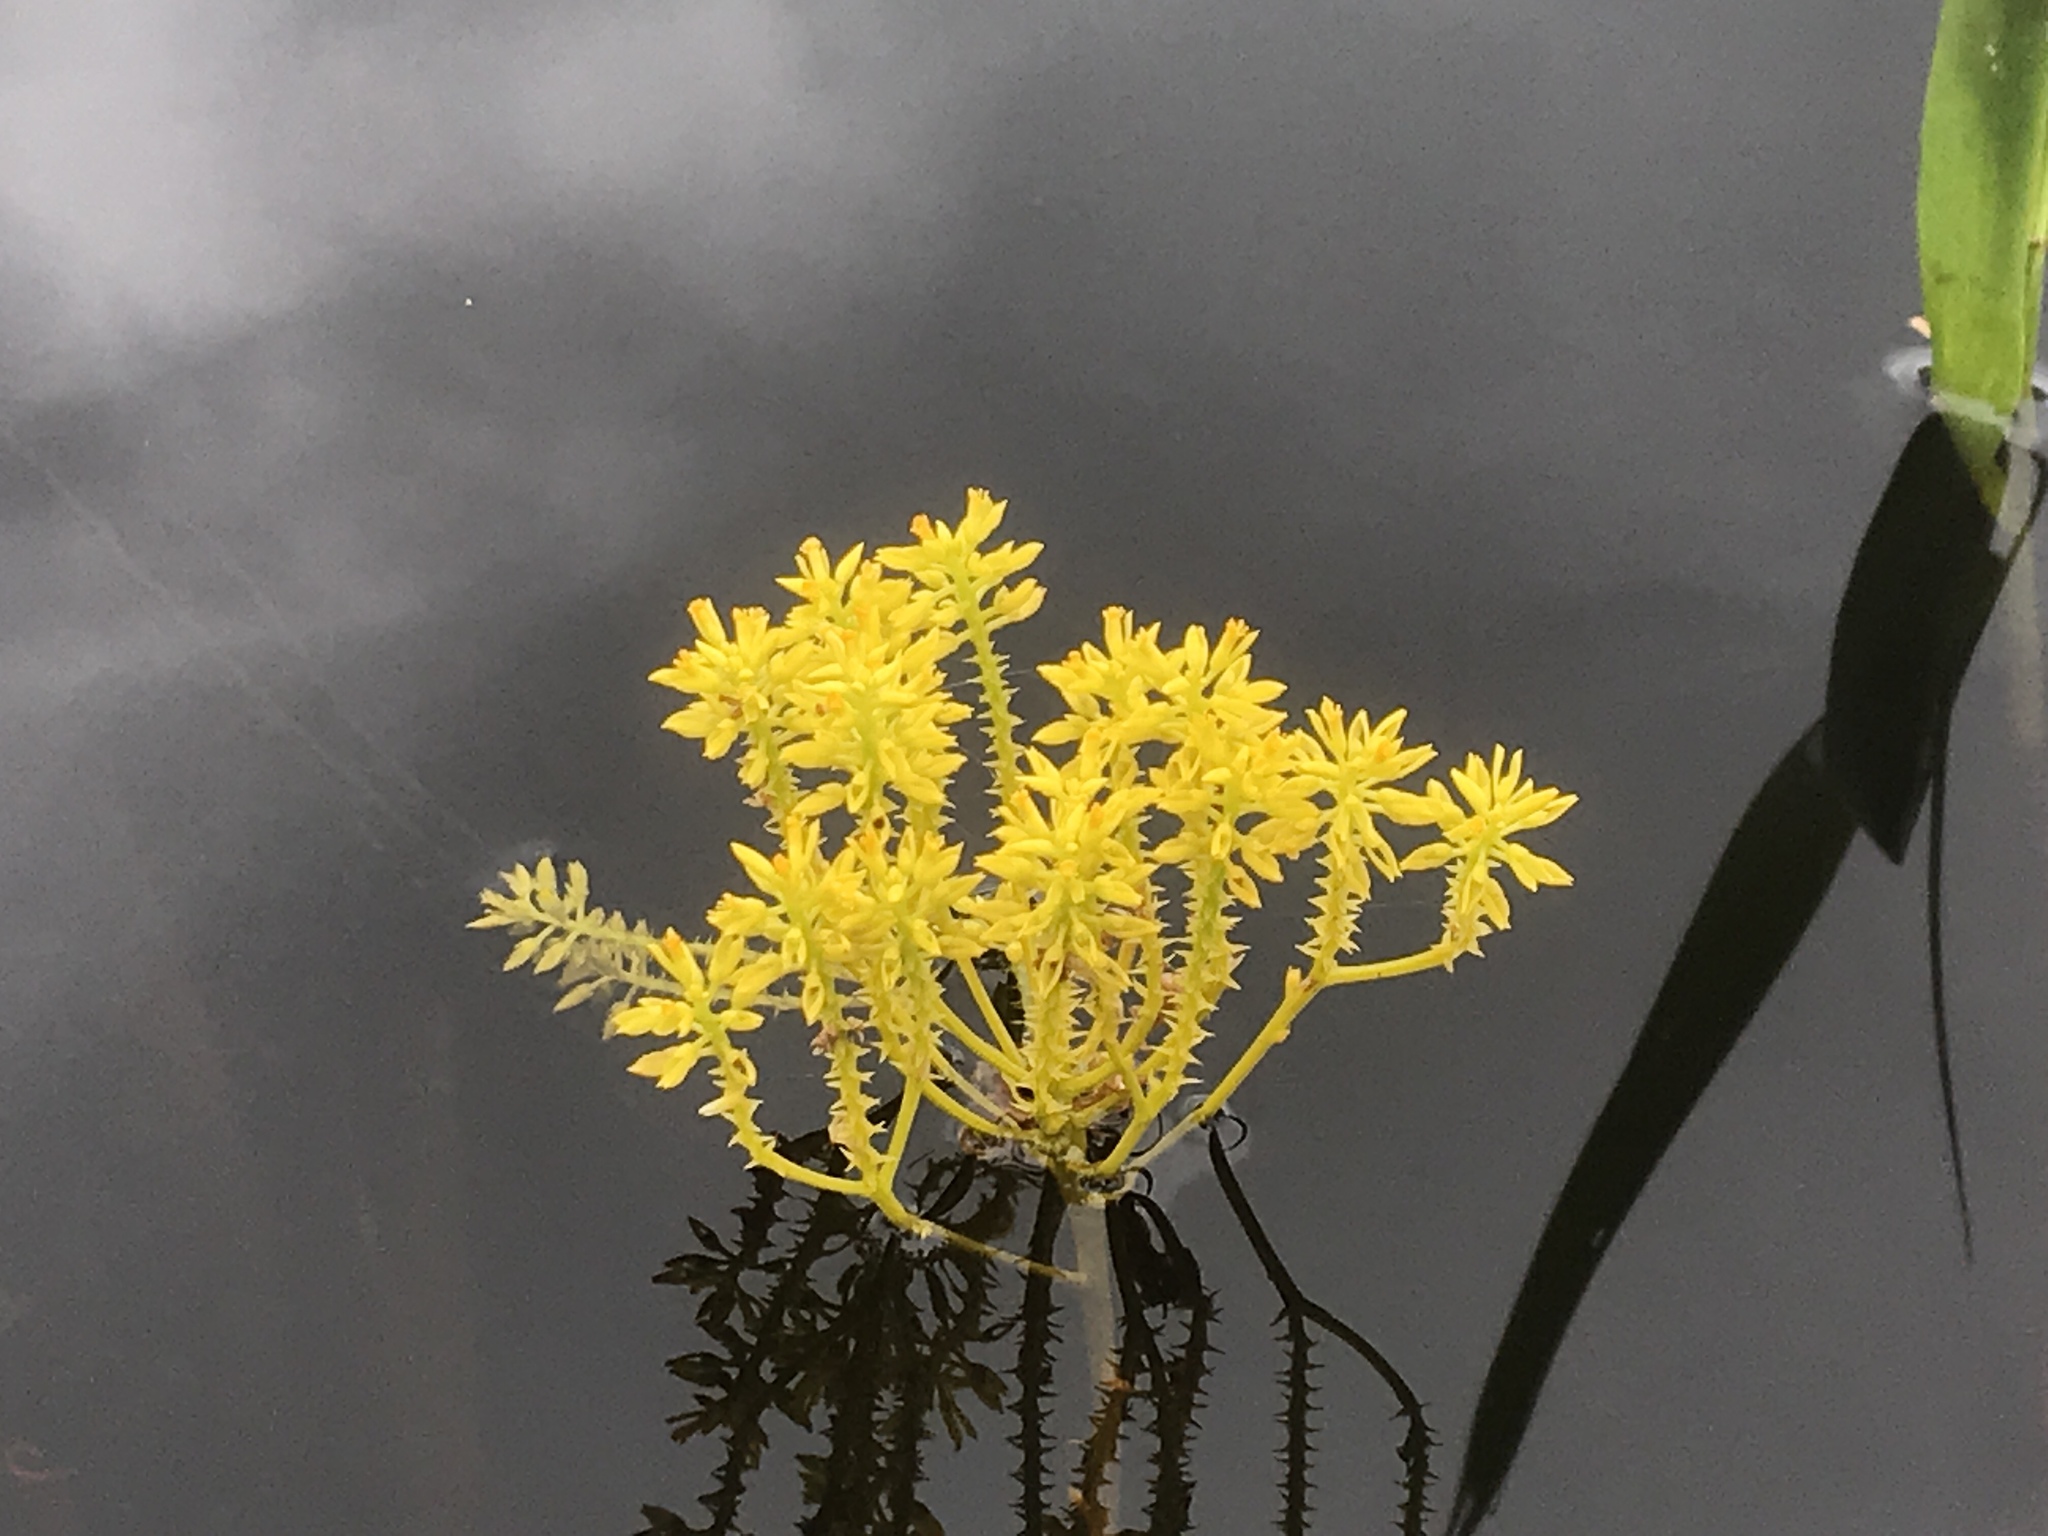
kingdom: Plantae
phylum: Tracheophyta
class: Magnoliopsida
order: Fabales
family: Polygalaceae
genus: Polygala
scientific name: Polygala cymosa
